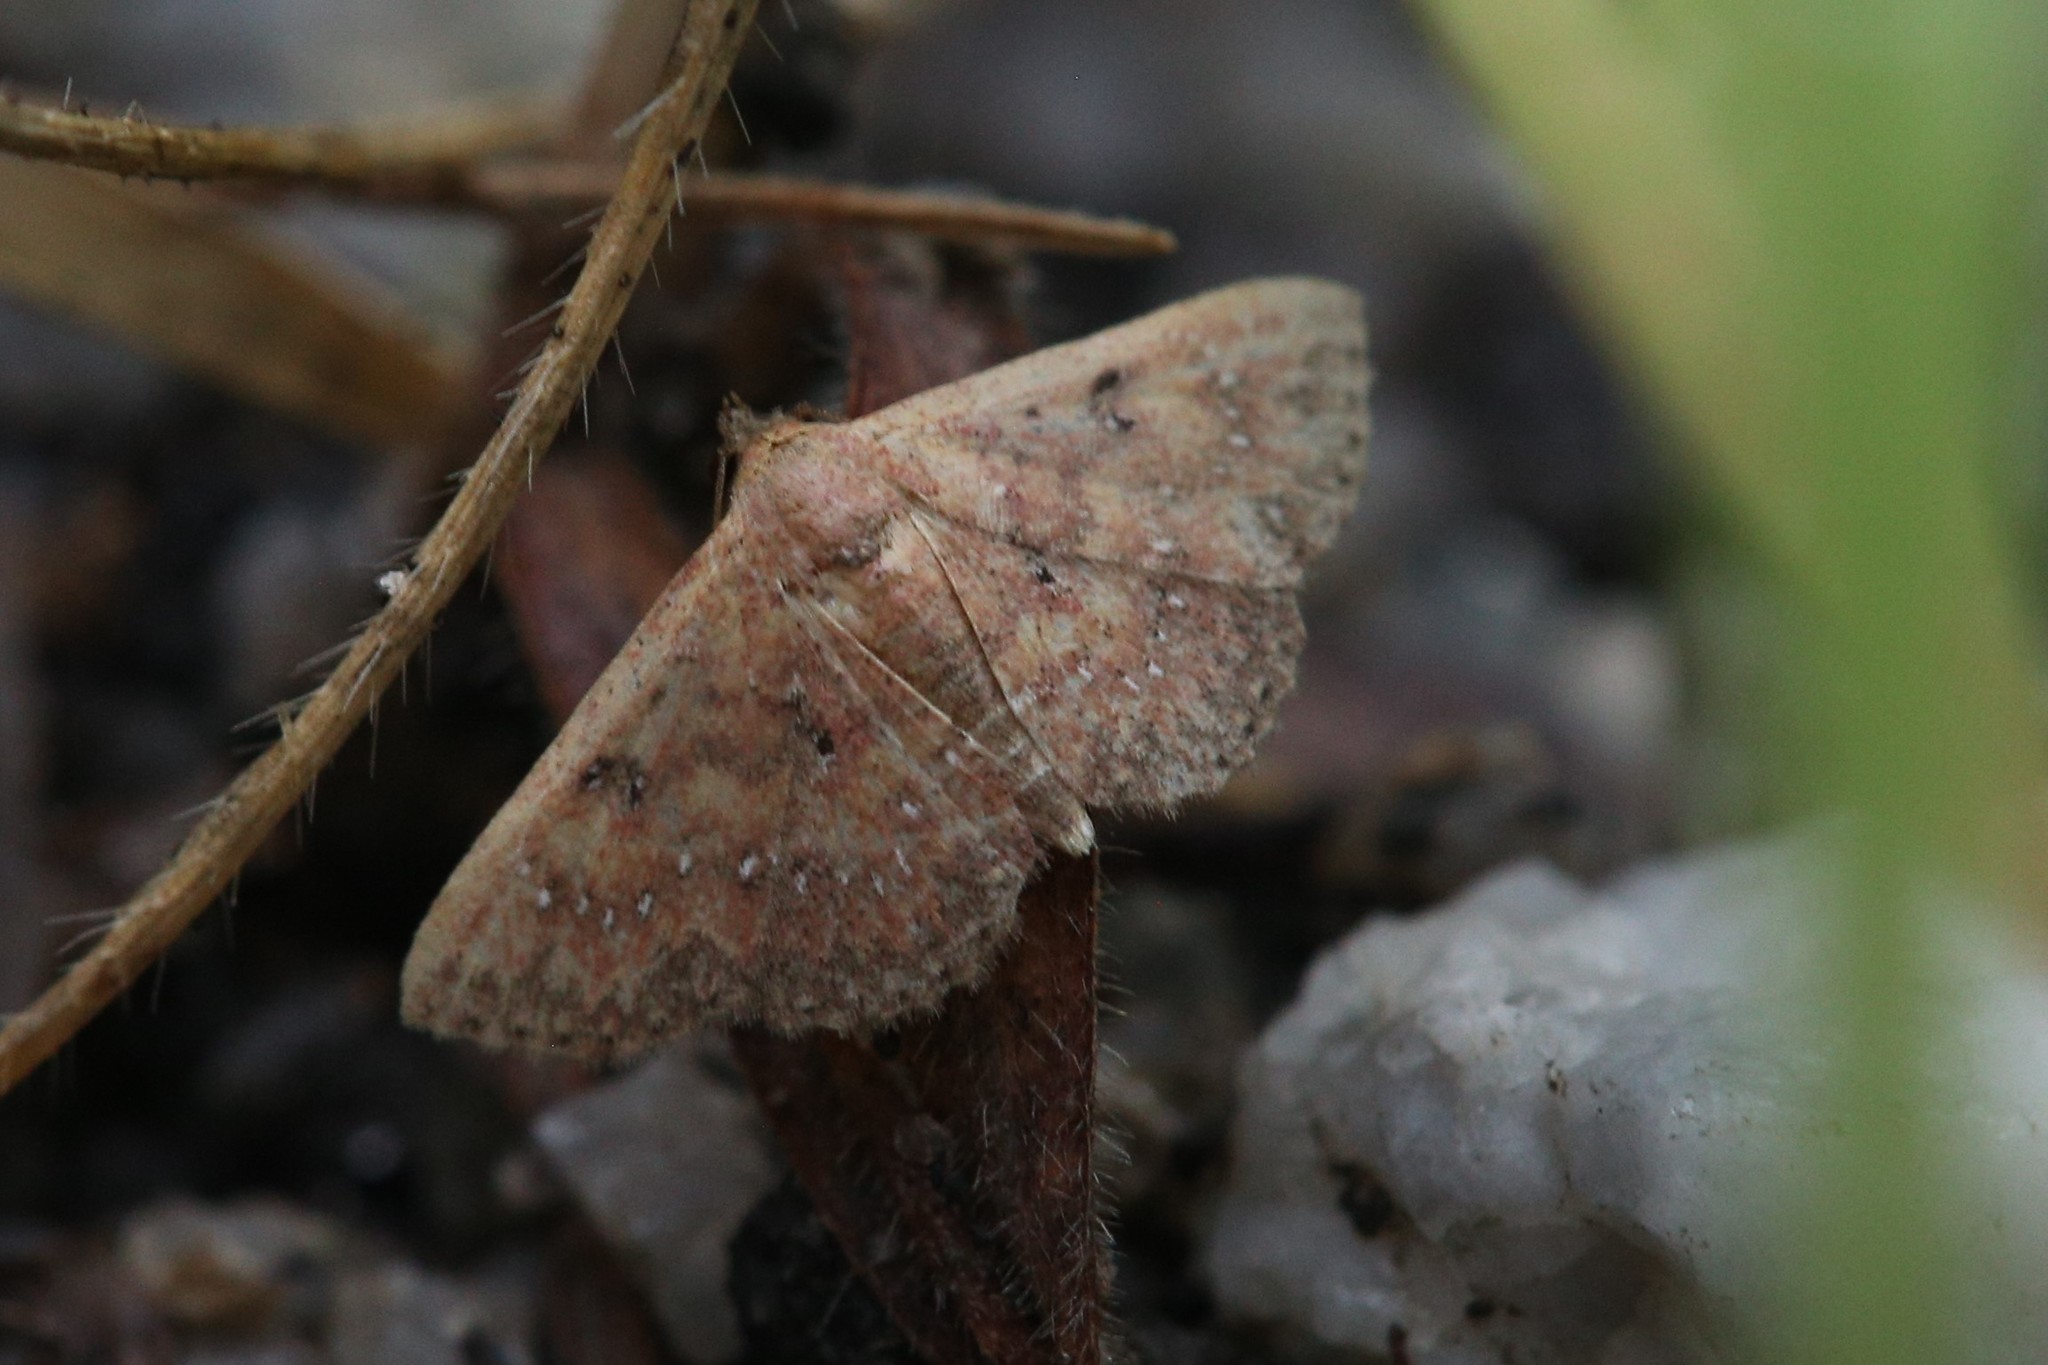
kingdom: Animalia
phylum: Arthropoda
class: Insecta
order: Lepidoptera
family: Noctuidae
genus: Cerynea
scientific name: Cerynea trogobasis
